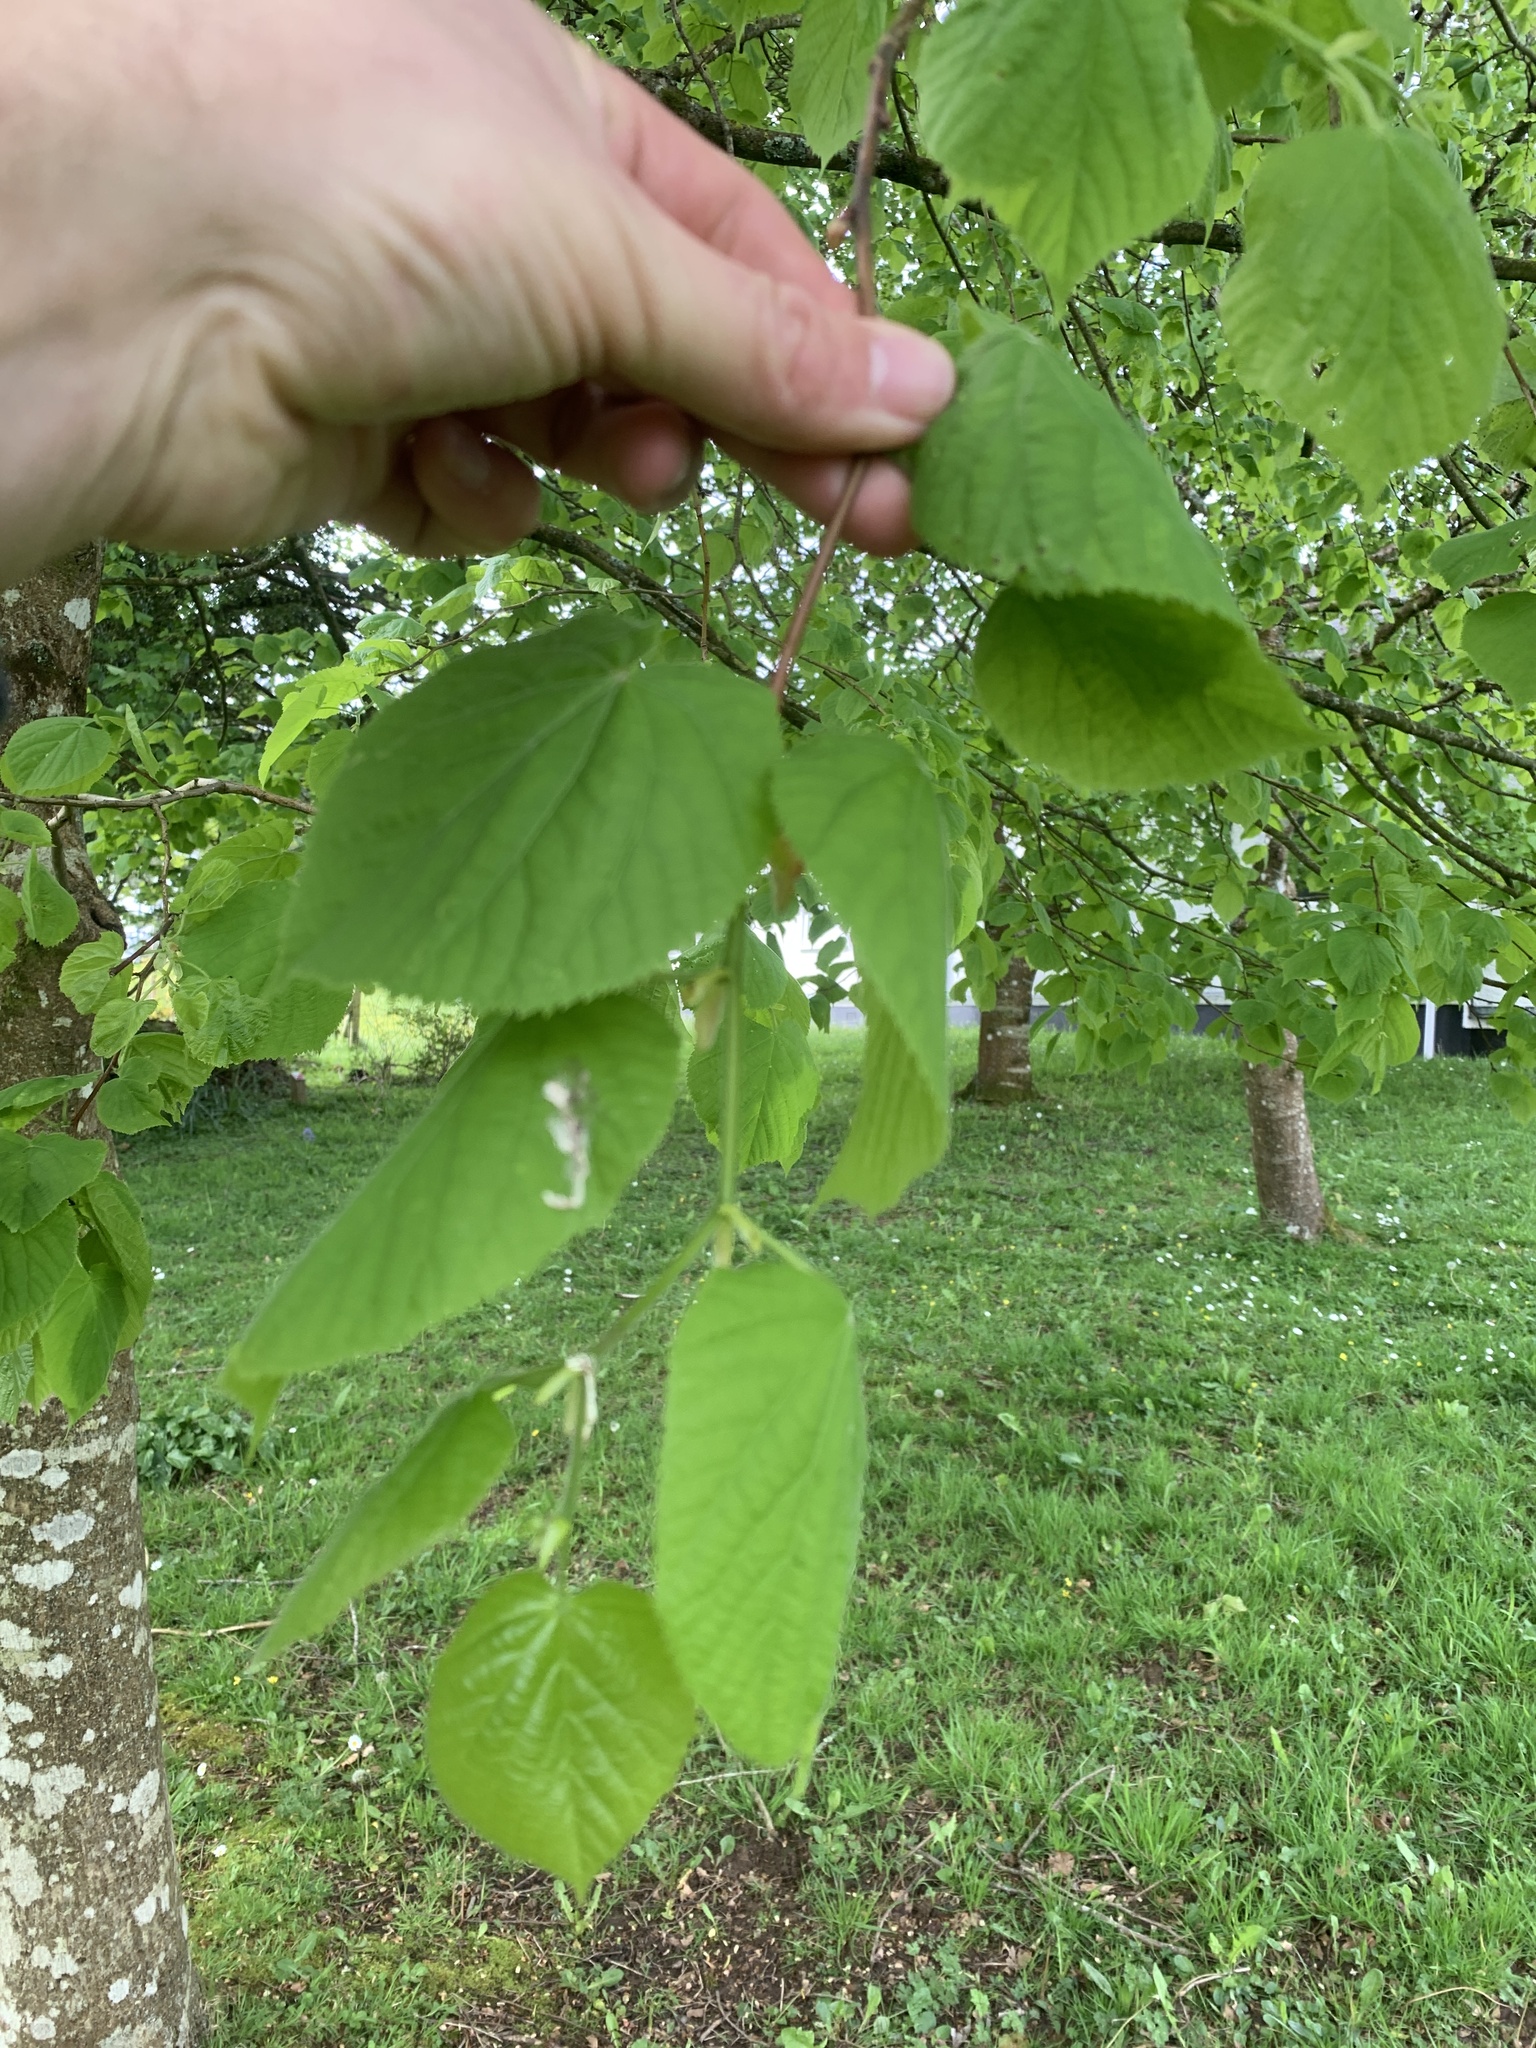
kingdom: Plantae
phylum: Tracheophyta
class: Magnoliopsida
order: Malvales
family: Malvaceae
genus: Tilia
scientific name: Tilia platyphyllos
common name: Large-leaved lime
